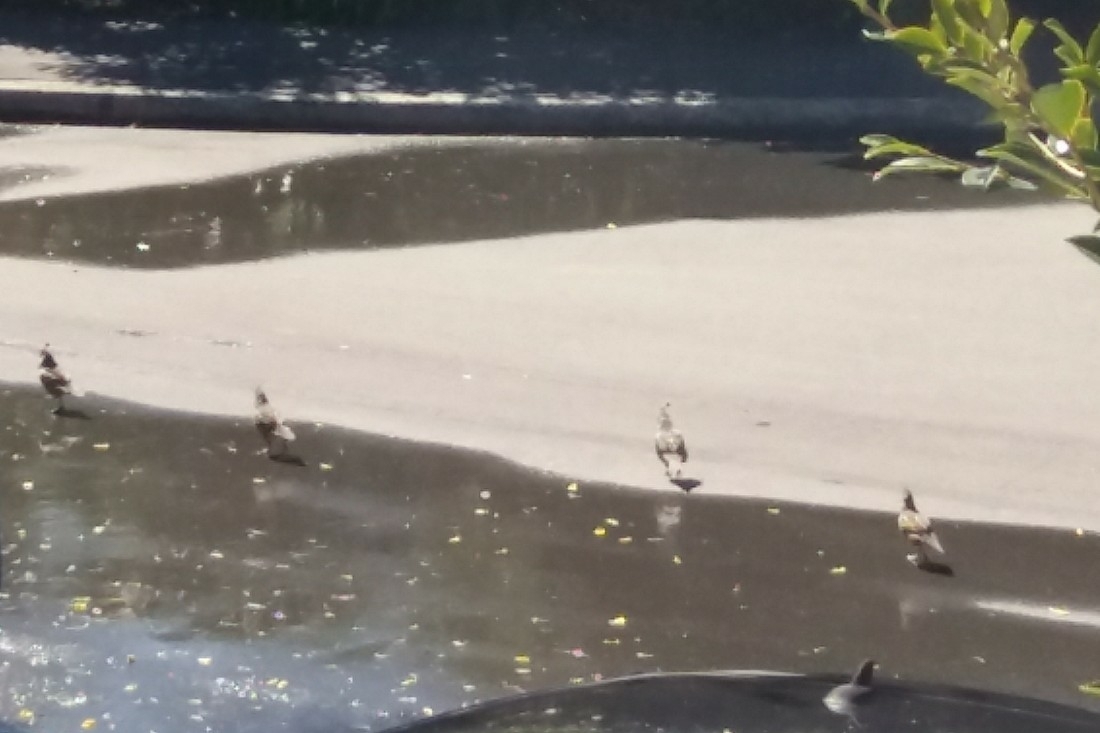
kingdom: Animalia
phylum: Chordata
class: Aves
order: Galliformes
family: Odontophoridae
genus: Callipepla
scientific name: Callipepla californica
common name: California quail
